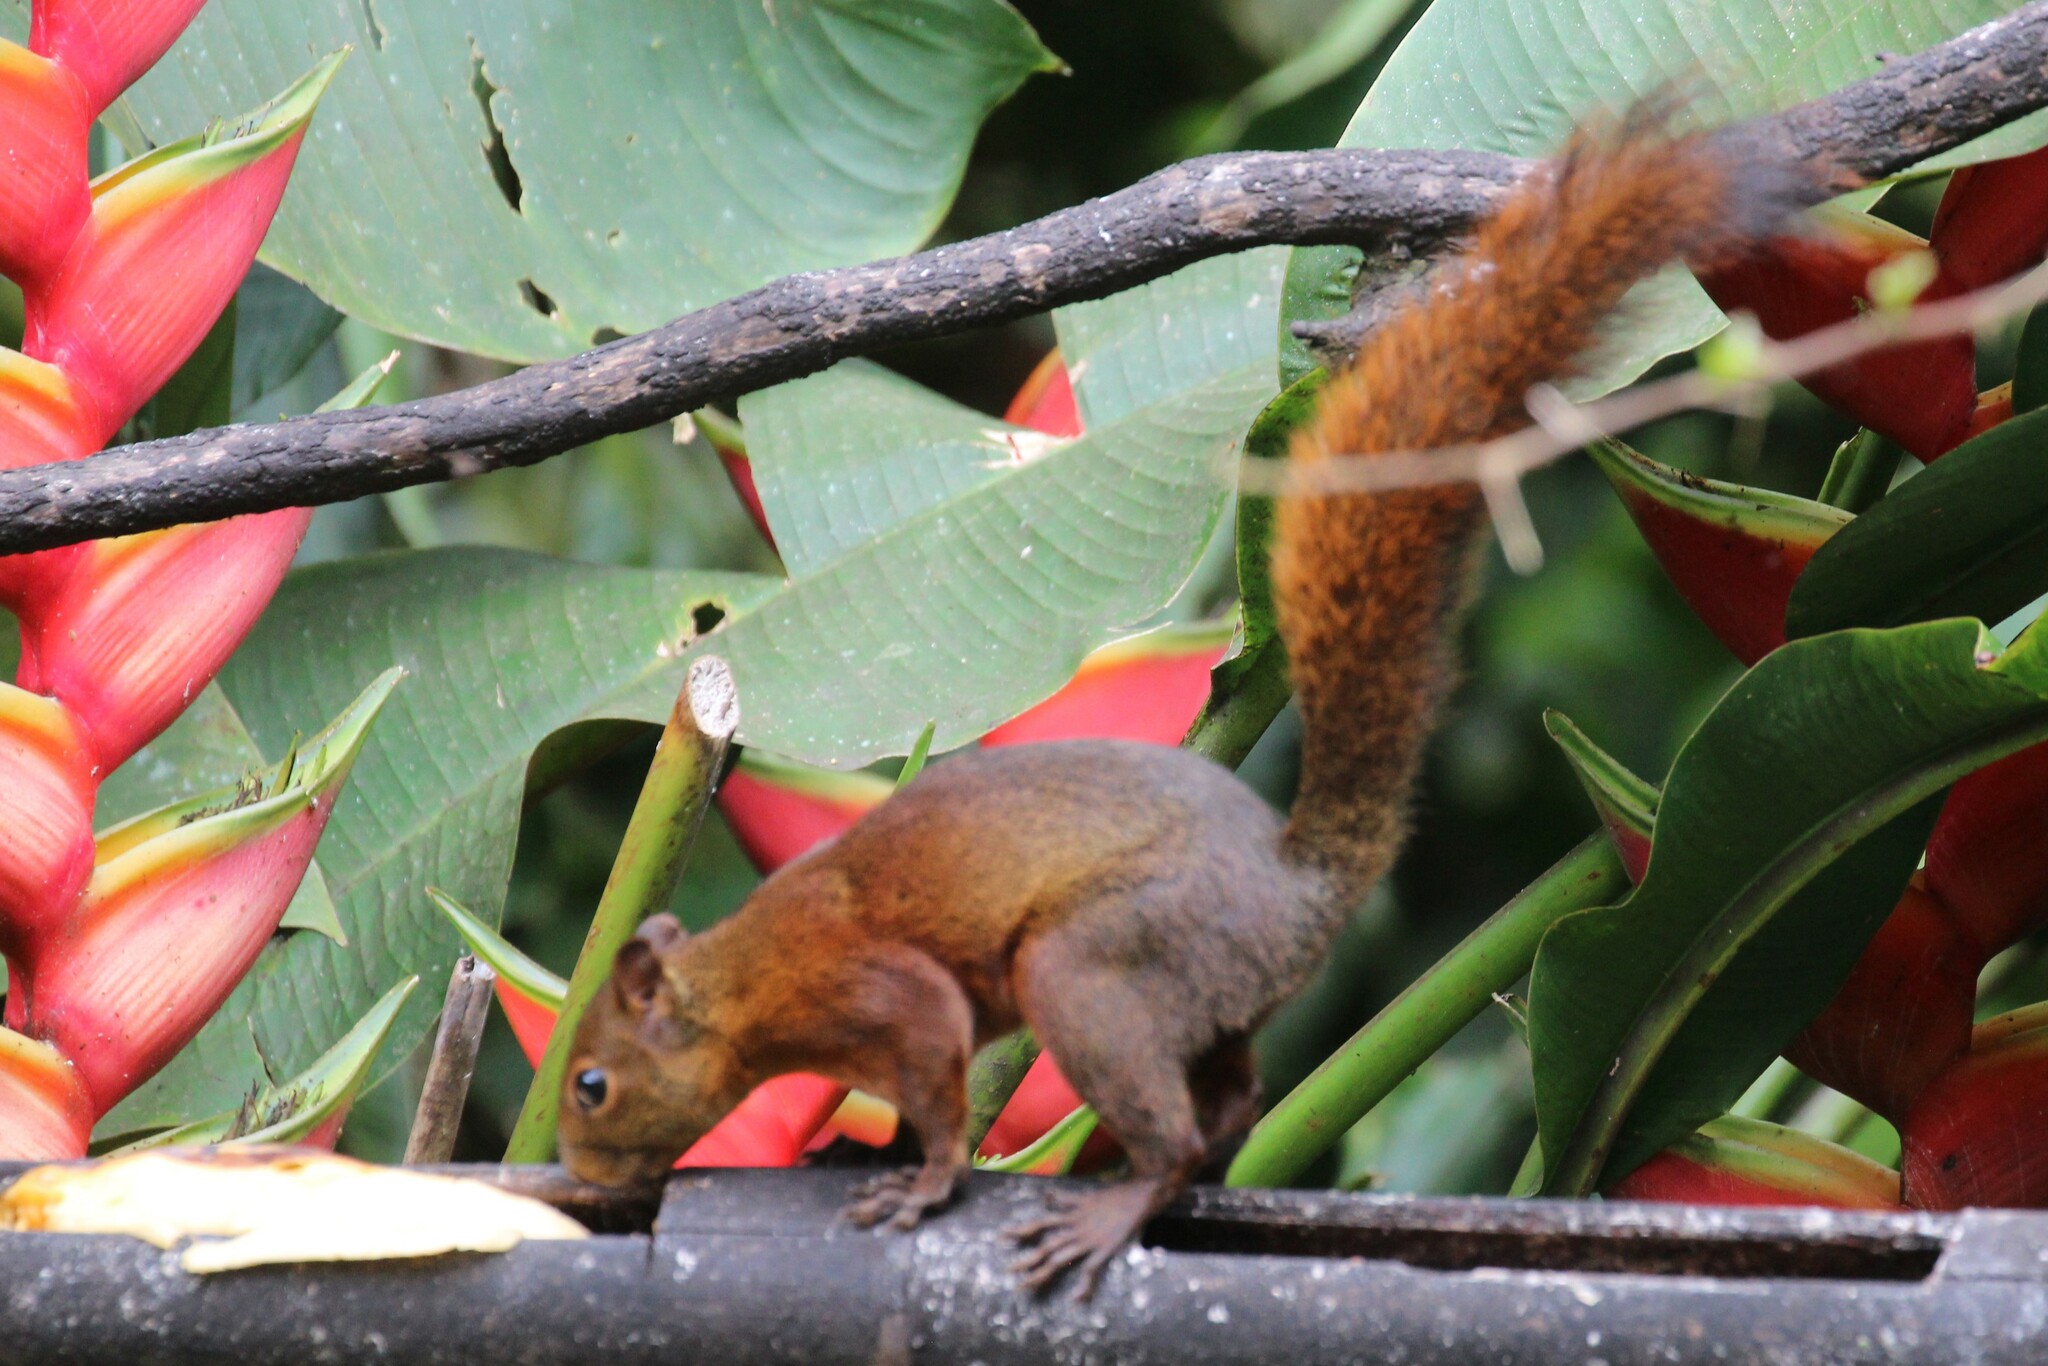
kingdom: Animalia
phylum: Chordata
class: Mammalia
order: Rodentia
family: Sciuridae
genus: Sciurus
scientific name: Sciurus granatensis
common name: Red-tailed squirrel
